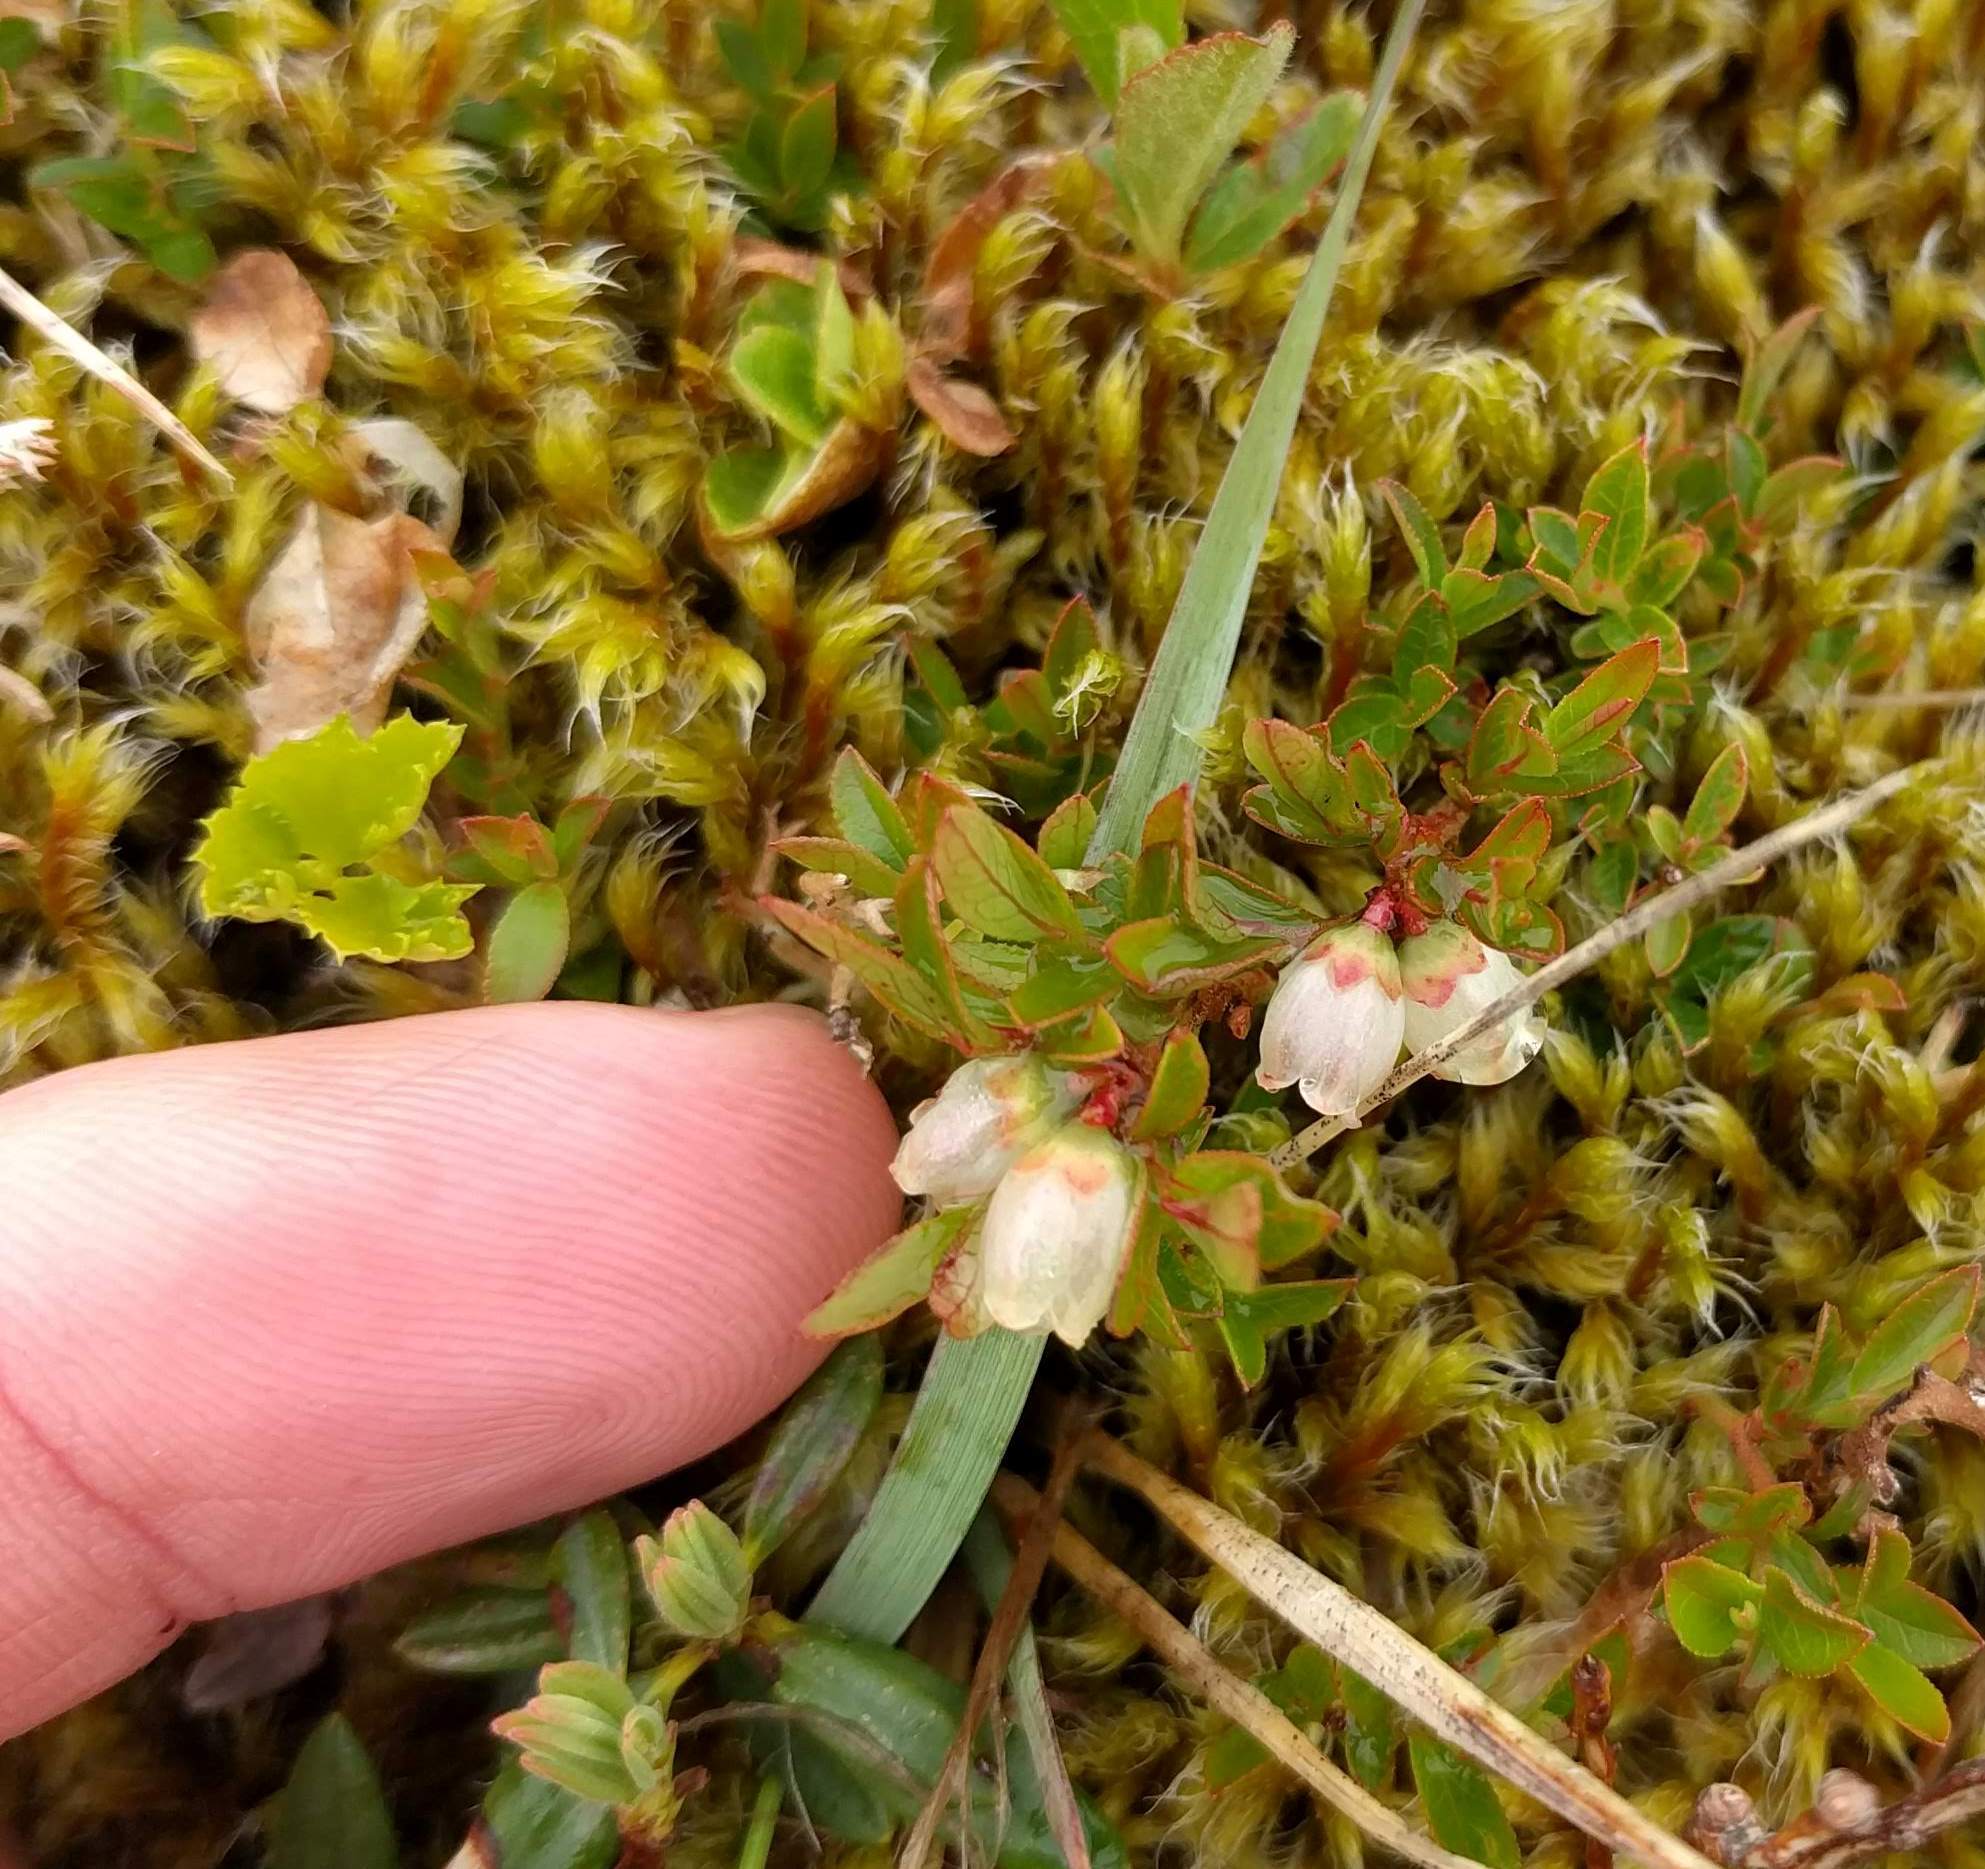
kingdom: Plantae
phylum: Tracheophyta
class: Magnoliopsida
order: Ericales
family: Ericaceae
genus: Vaccinium
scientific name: Vaccinium boreale
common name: Northern blueberry
